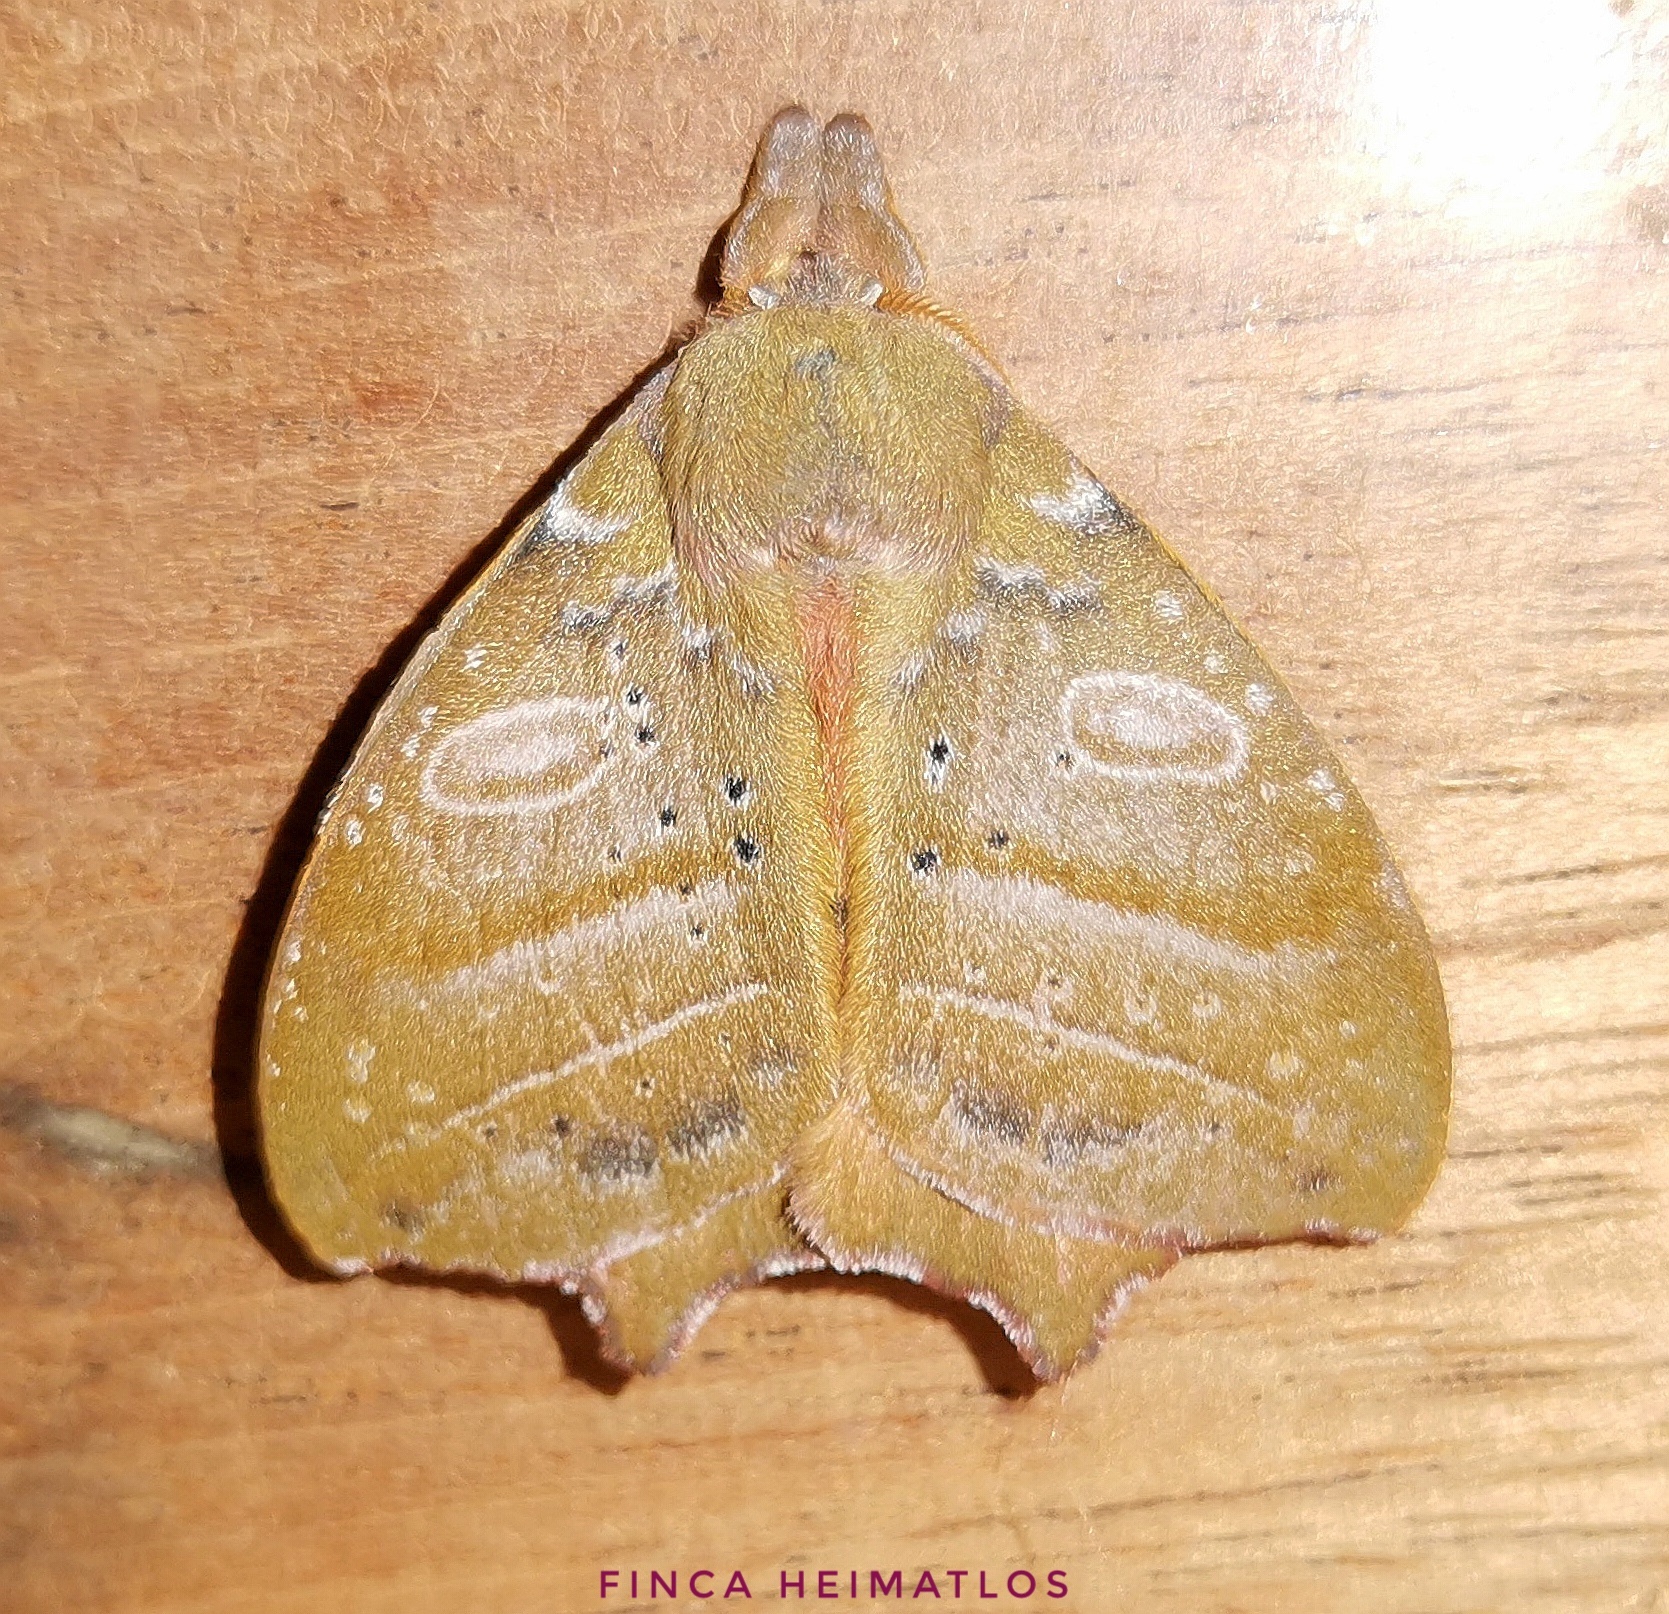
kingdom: Animalia
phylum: Arthropoda
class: Insecta
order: Lepidoptera
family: Saturniidae
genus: Automerina
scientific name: Automerina caudatula
